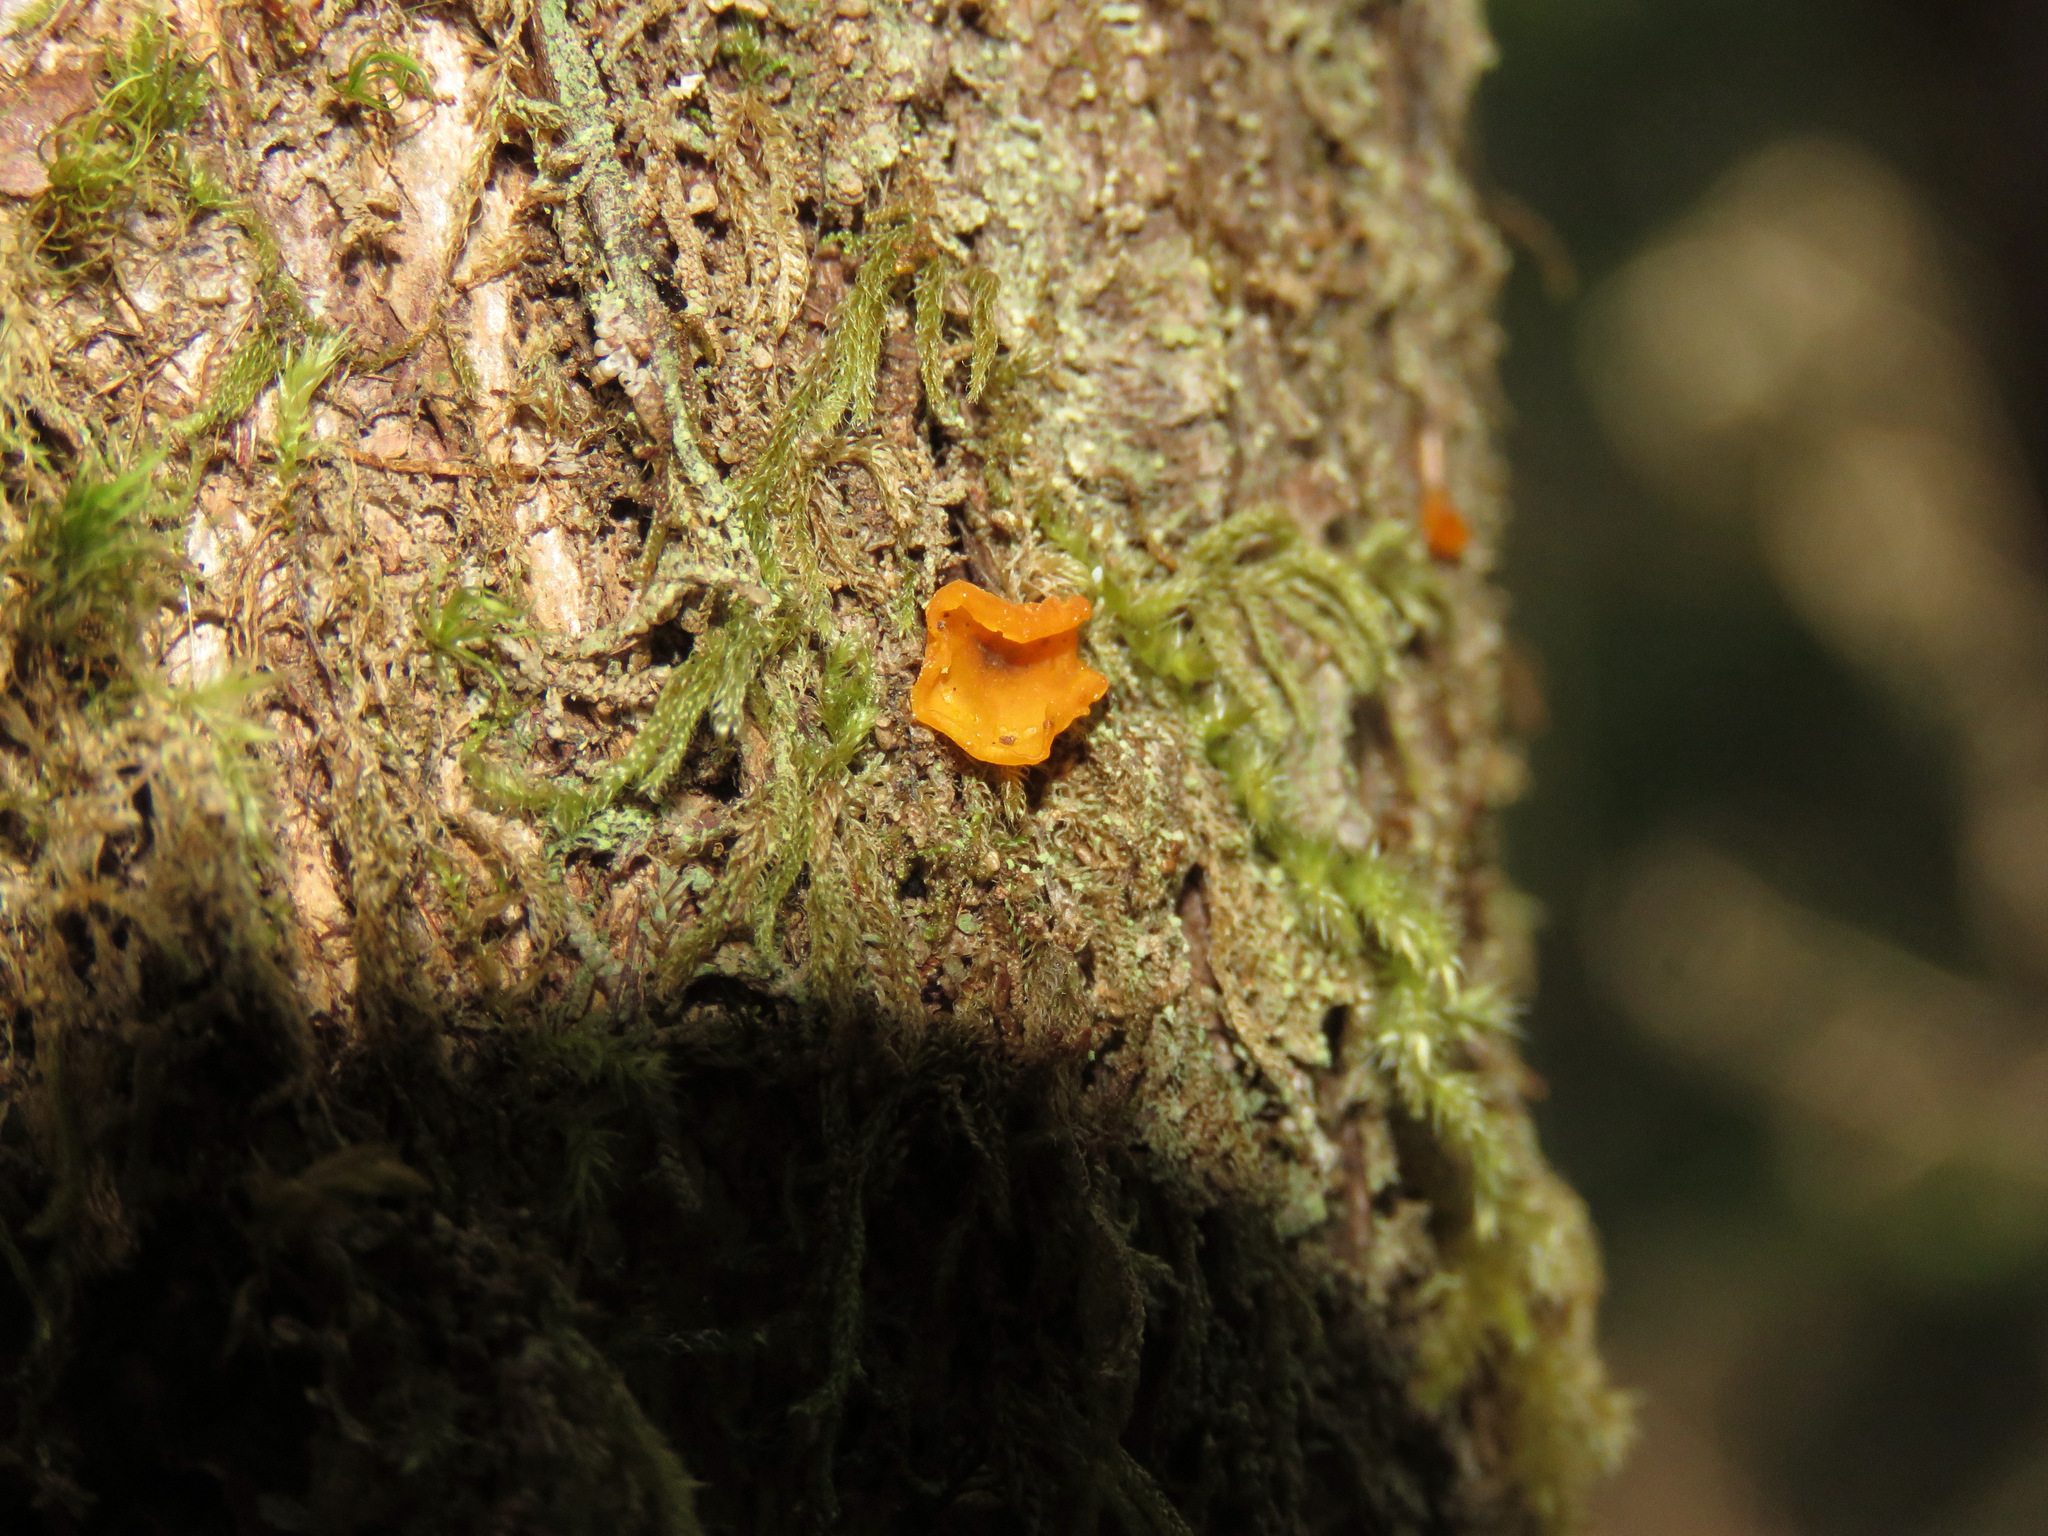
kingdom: Fungi
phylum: Basidiomycota
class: Dacrymycetes
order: Dacrymycetales
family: Dacrymycetaceae
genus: Dacrymyces
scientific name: Dacrymyces chrysospermus
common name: Orange jelly spot
